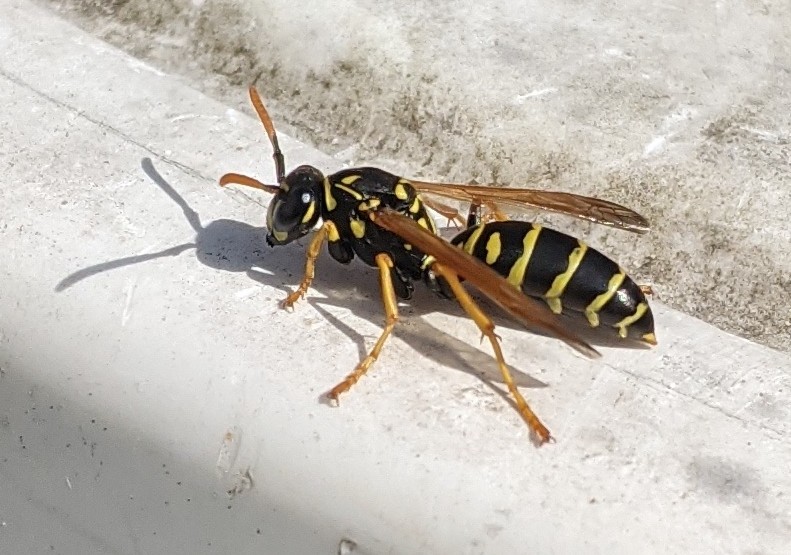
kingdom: Animalia
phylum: Arthropoda
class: Insecta
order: Hymenoptera
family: Eumenidae
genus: Polistes
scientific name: Polistes dominula
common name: Paper wasp
